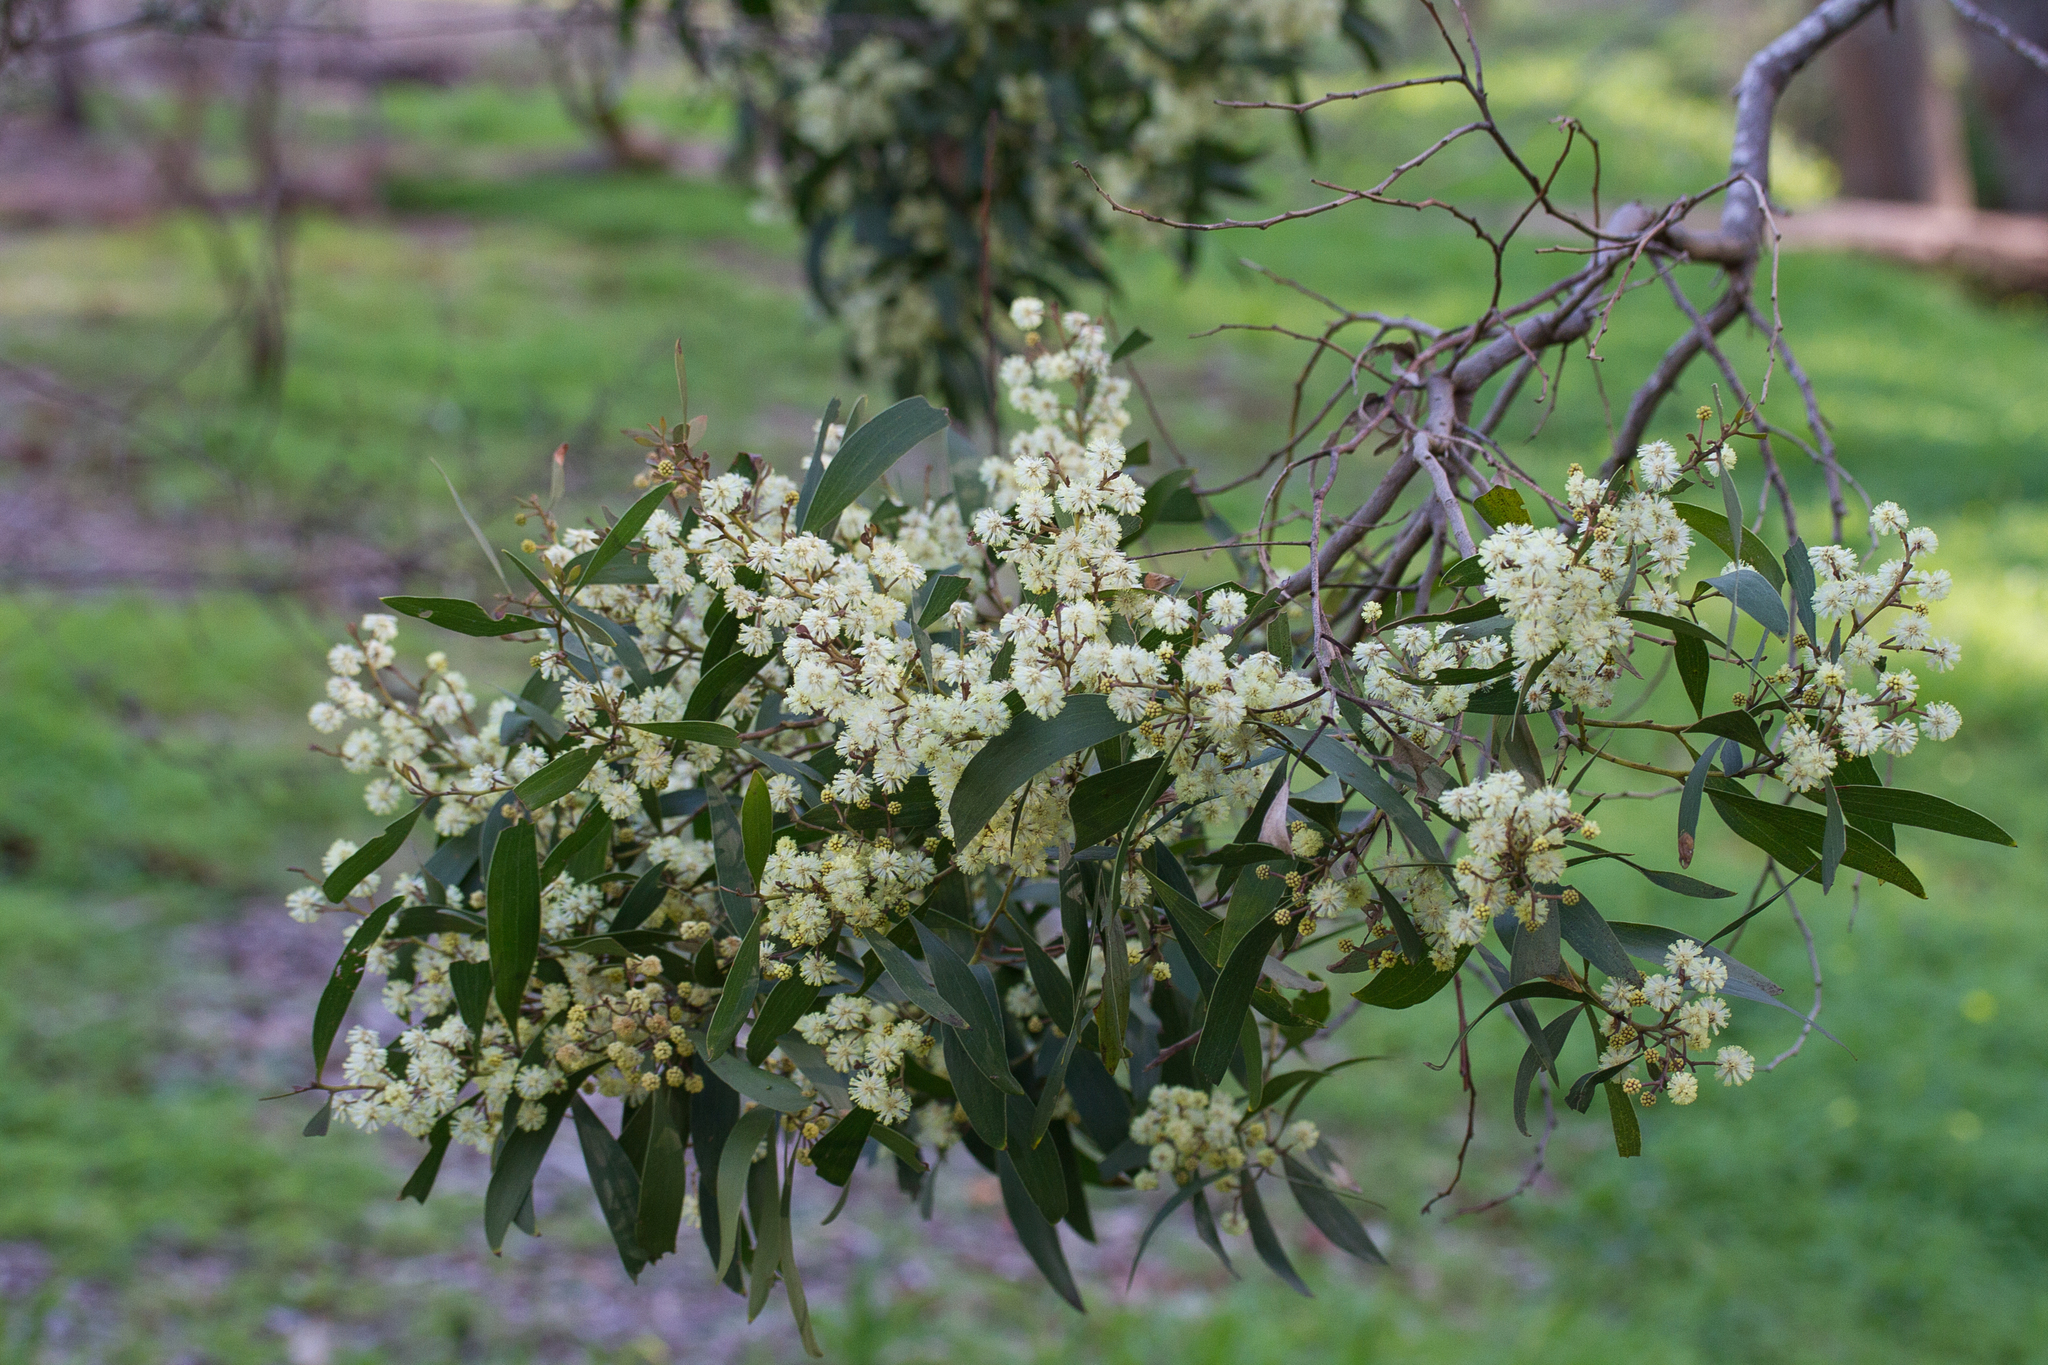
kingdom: Plantae
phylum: Tracheophyta
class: Magnoliopsida
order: Fabales
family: Fabaceae
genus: Acacia
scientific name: Acacia melanoxylon
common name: Blackwood
